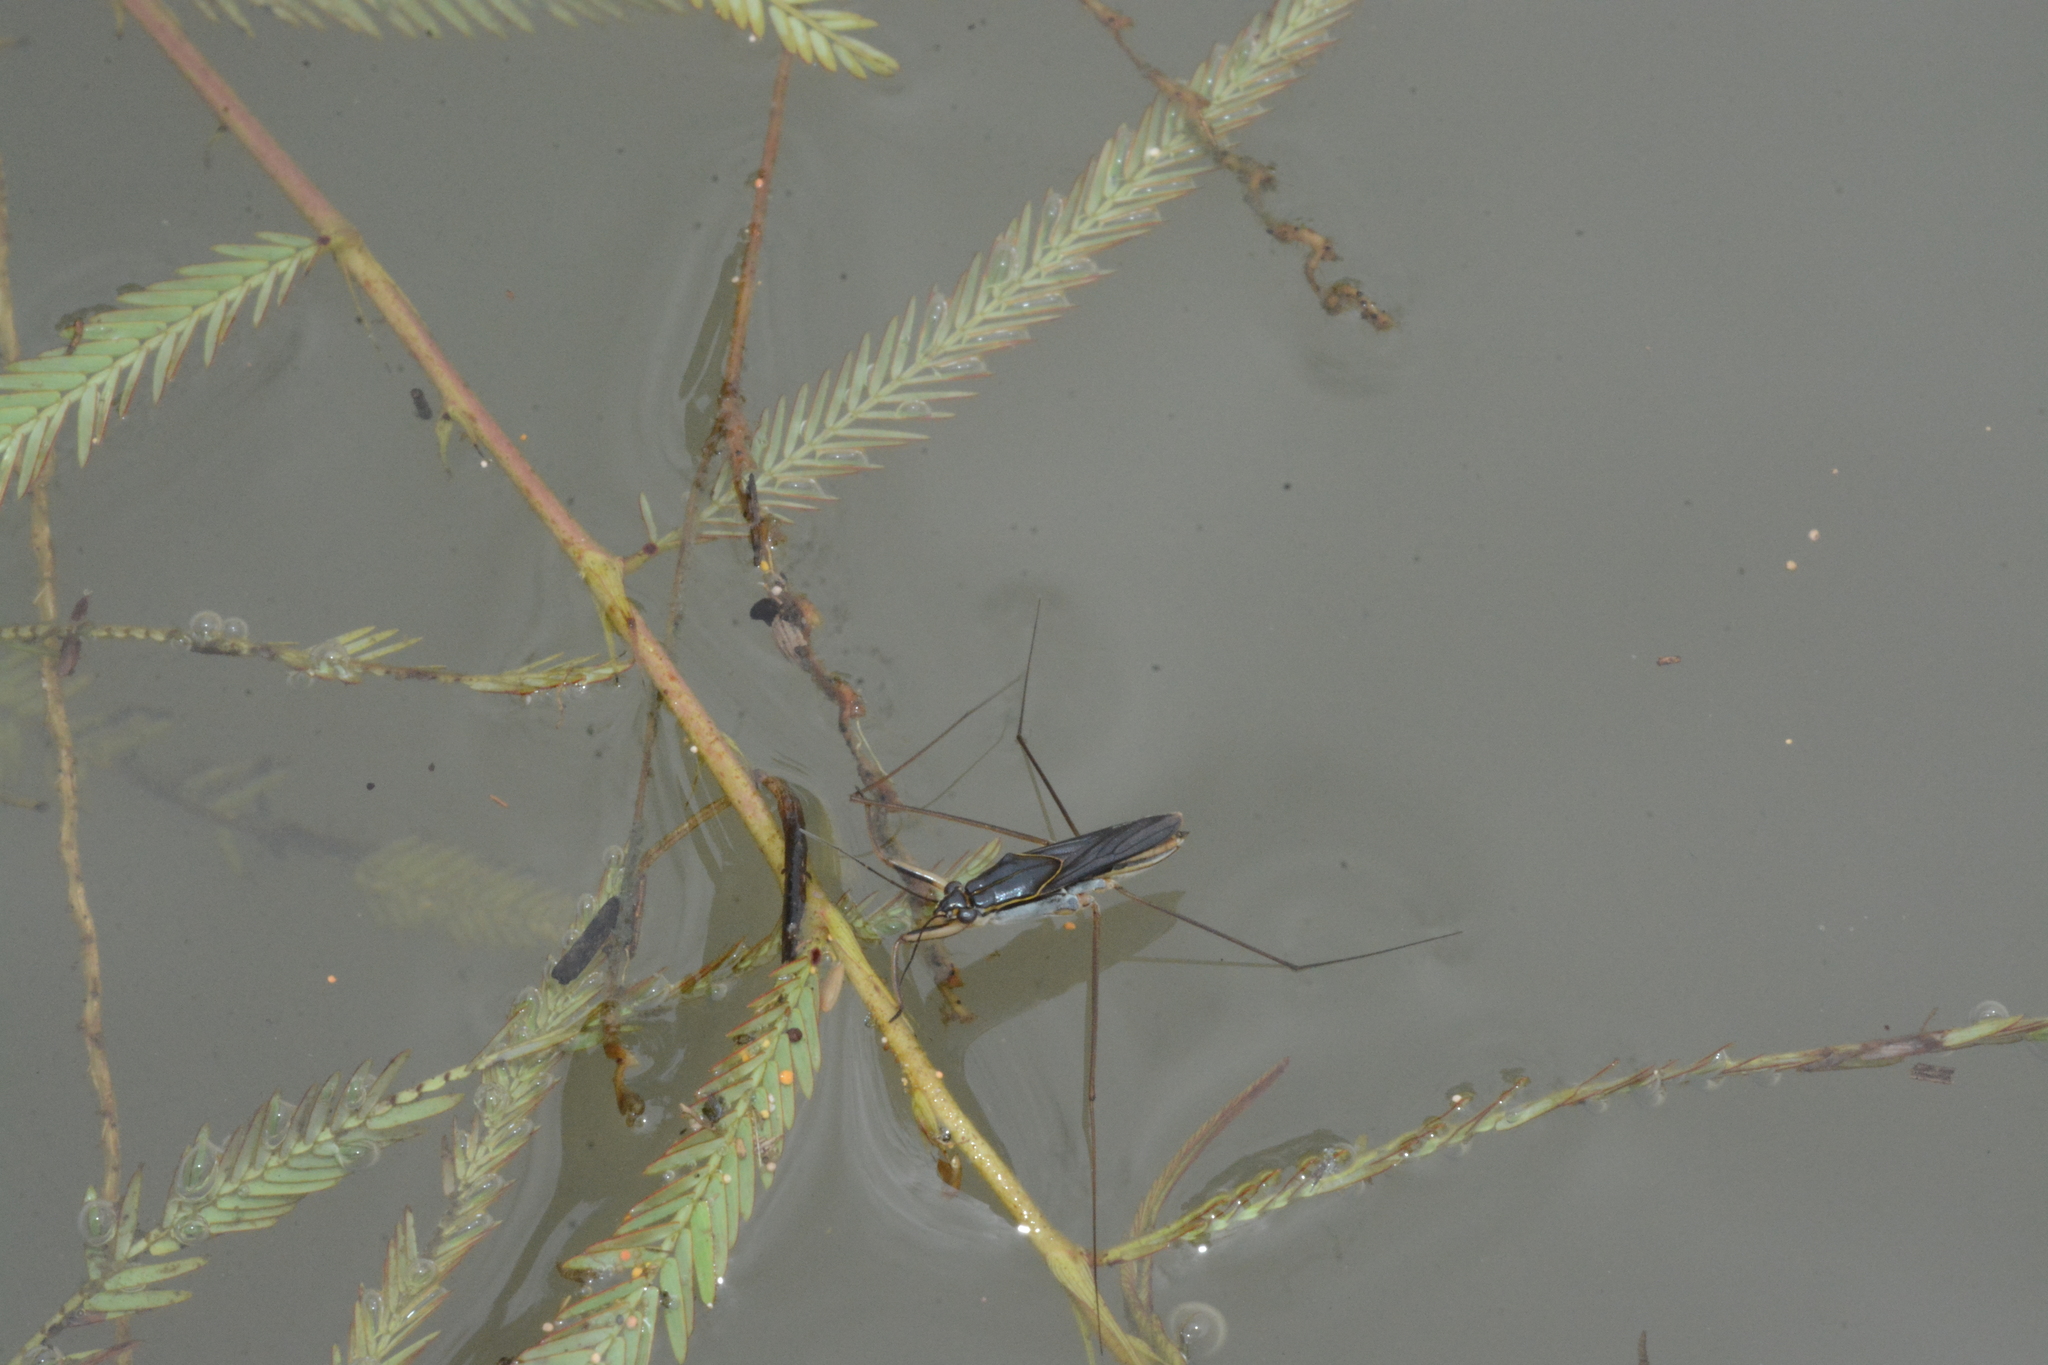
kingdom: Animalia
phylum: Arthropoda
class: Insecta
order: Hemiptera
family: Gerridae
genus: Limnogonus
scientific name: Limnogonus
